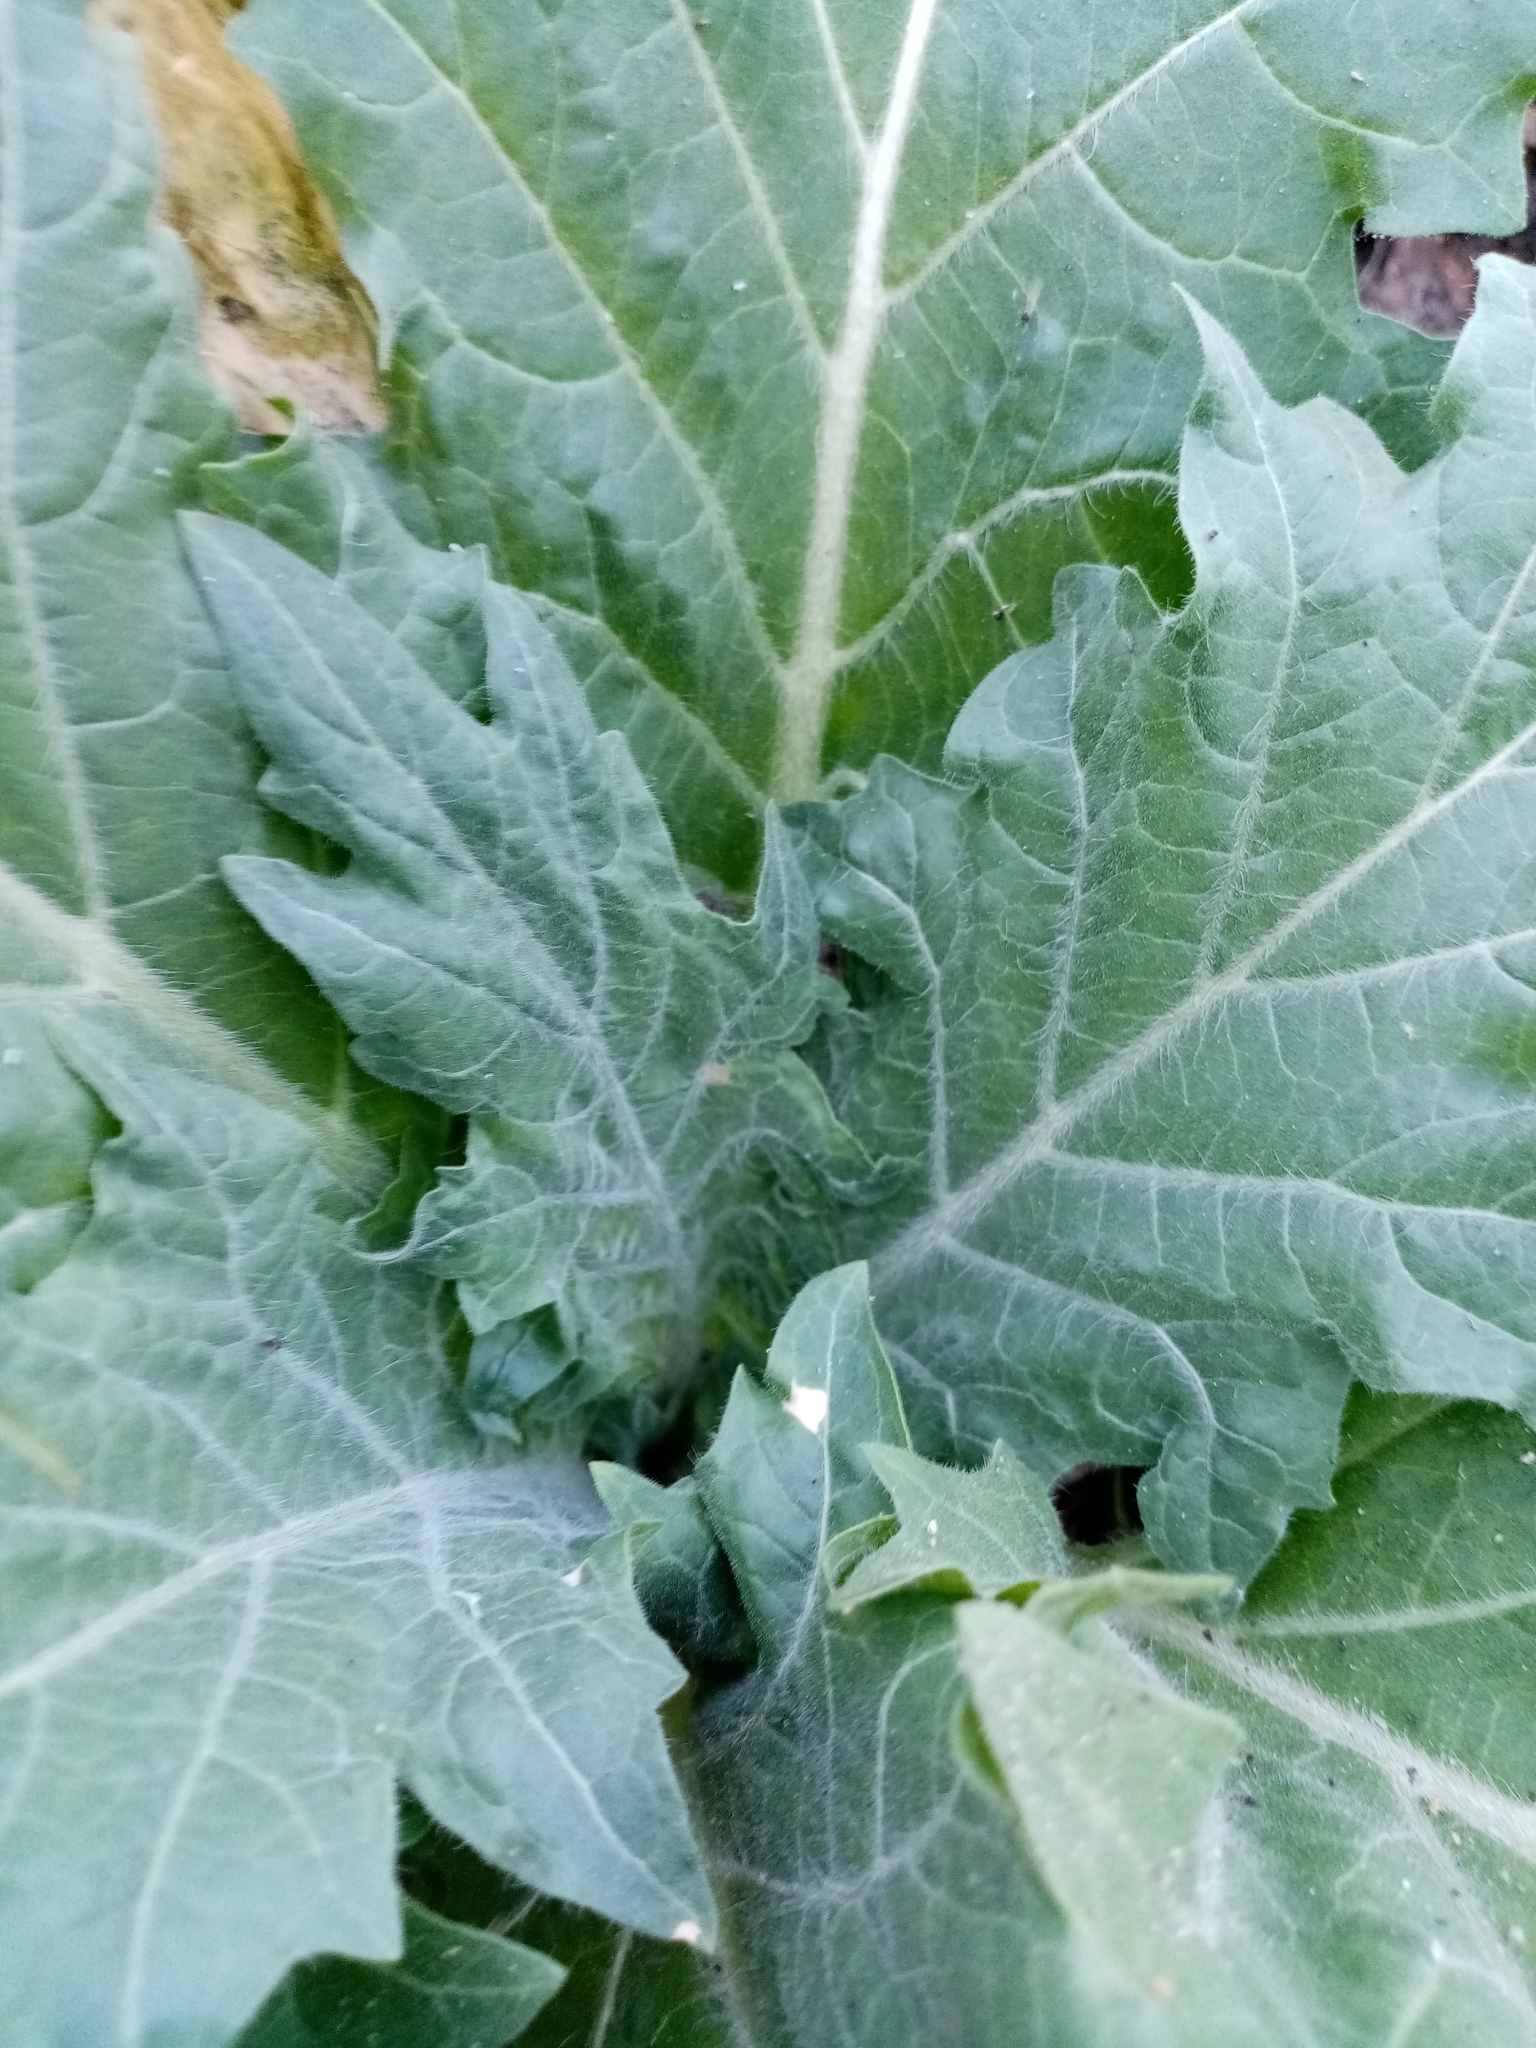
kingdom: Plantae
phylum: Tracheophyta
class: Magnoliopsida
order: Solanales
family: Solanaceae
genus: Hyoscyamus
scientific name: Hyoscyamus niger
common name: Henbane
